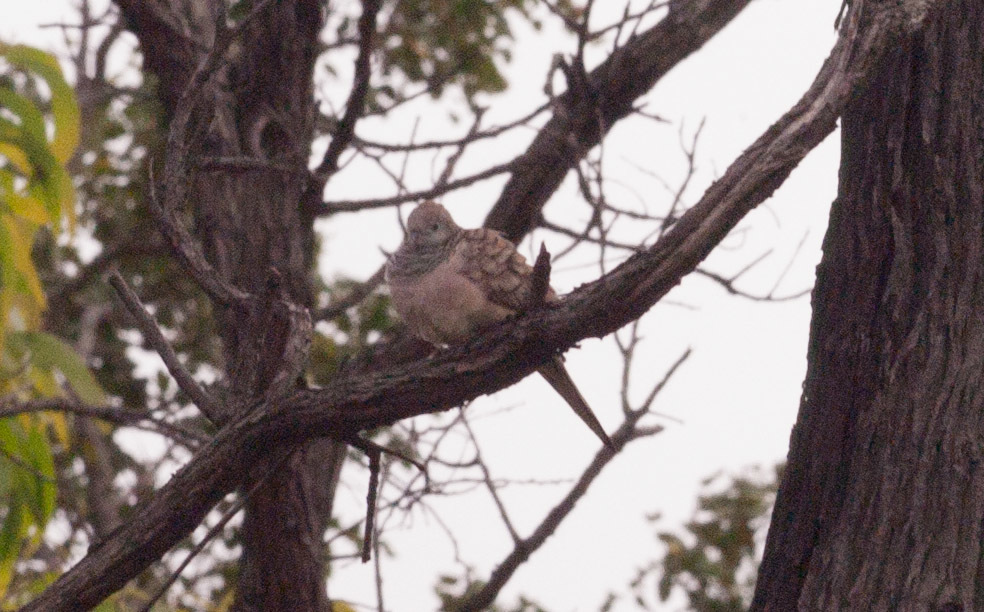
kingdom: Animalia
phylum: Chordata
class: Aves
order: Columbiformes
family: Columbidae
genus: Geopelia
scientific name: Geopelia placida
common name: Peaceful dove
